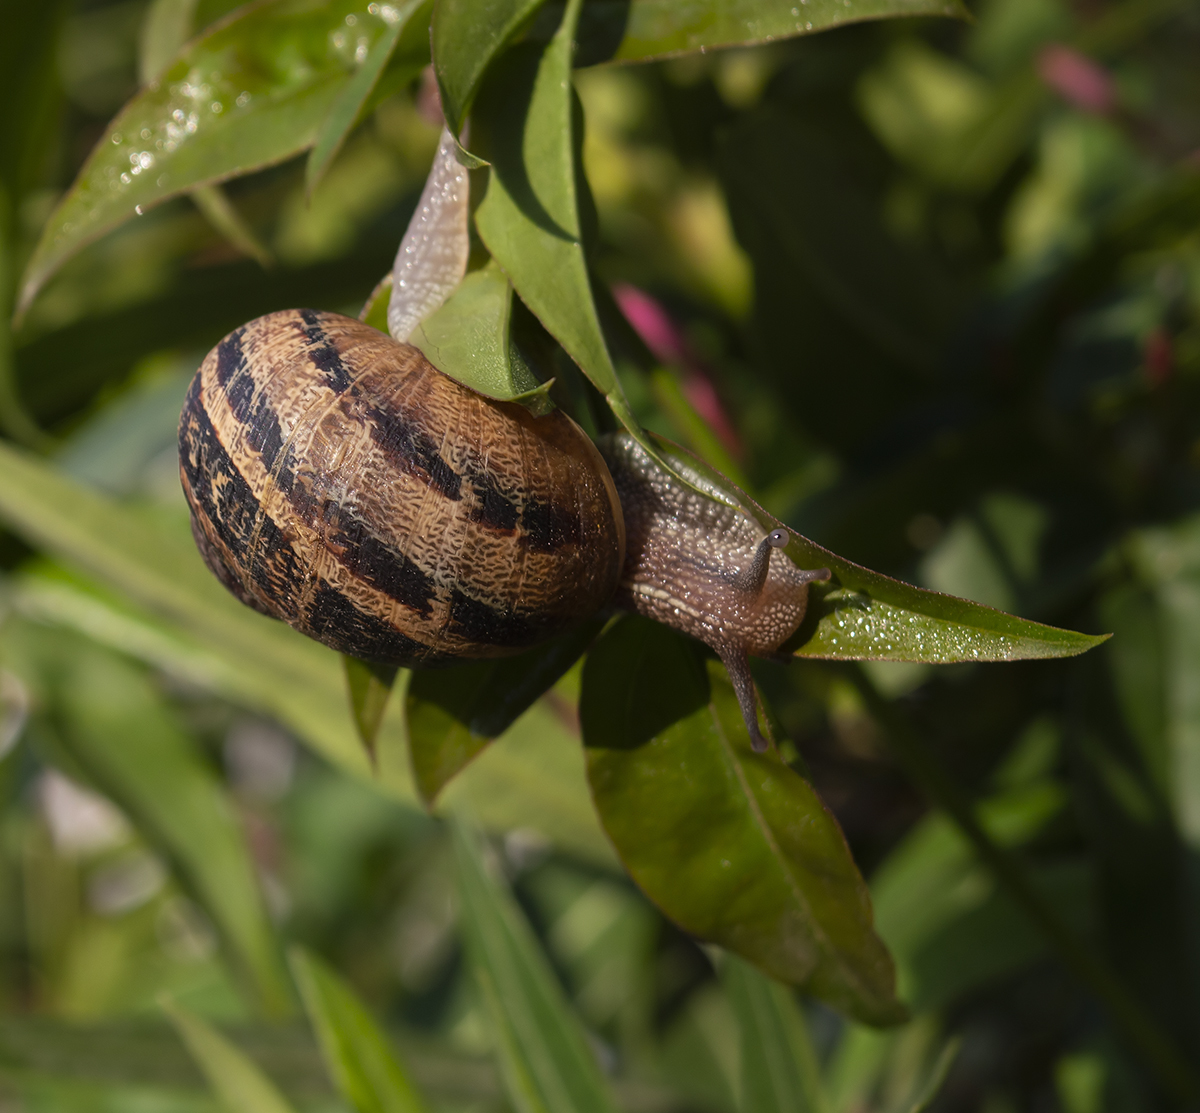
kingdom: Animalia
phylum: Mollusca
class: Gastropoda
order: Stylommatophora
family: Helicidae
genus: Cornu
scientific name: Cornu aspersum
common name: Brown garden snail
